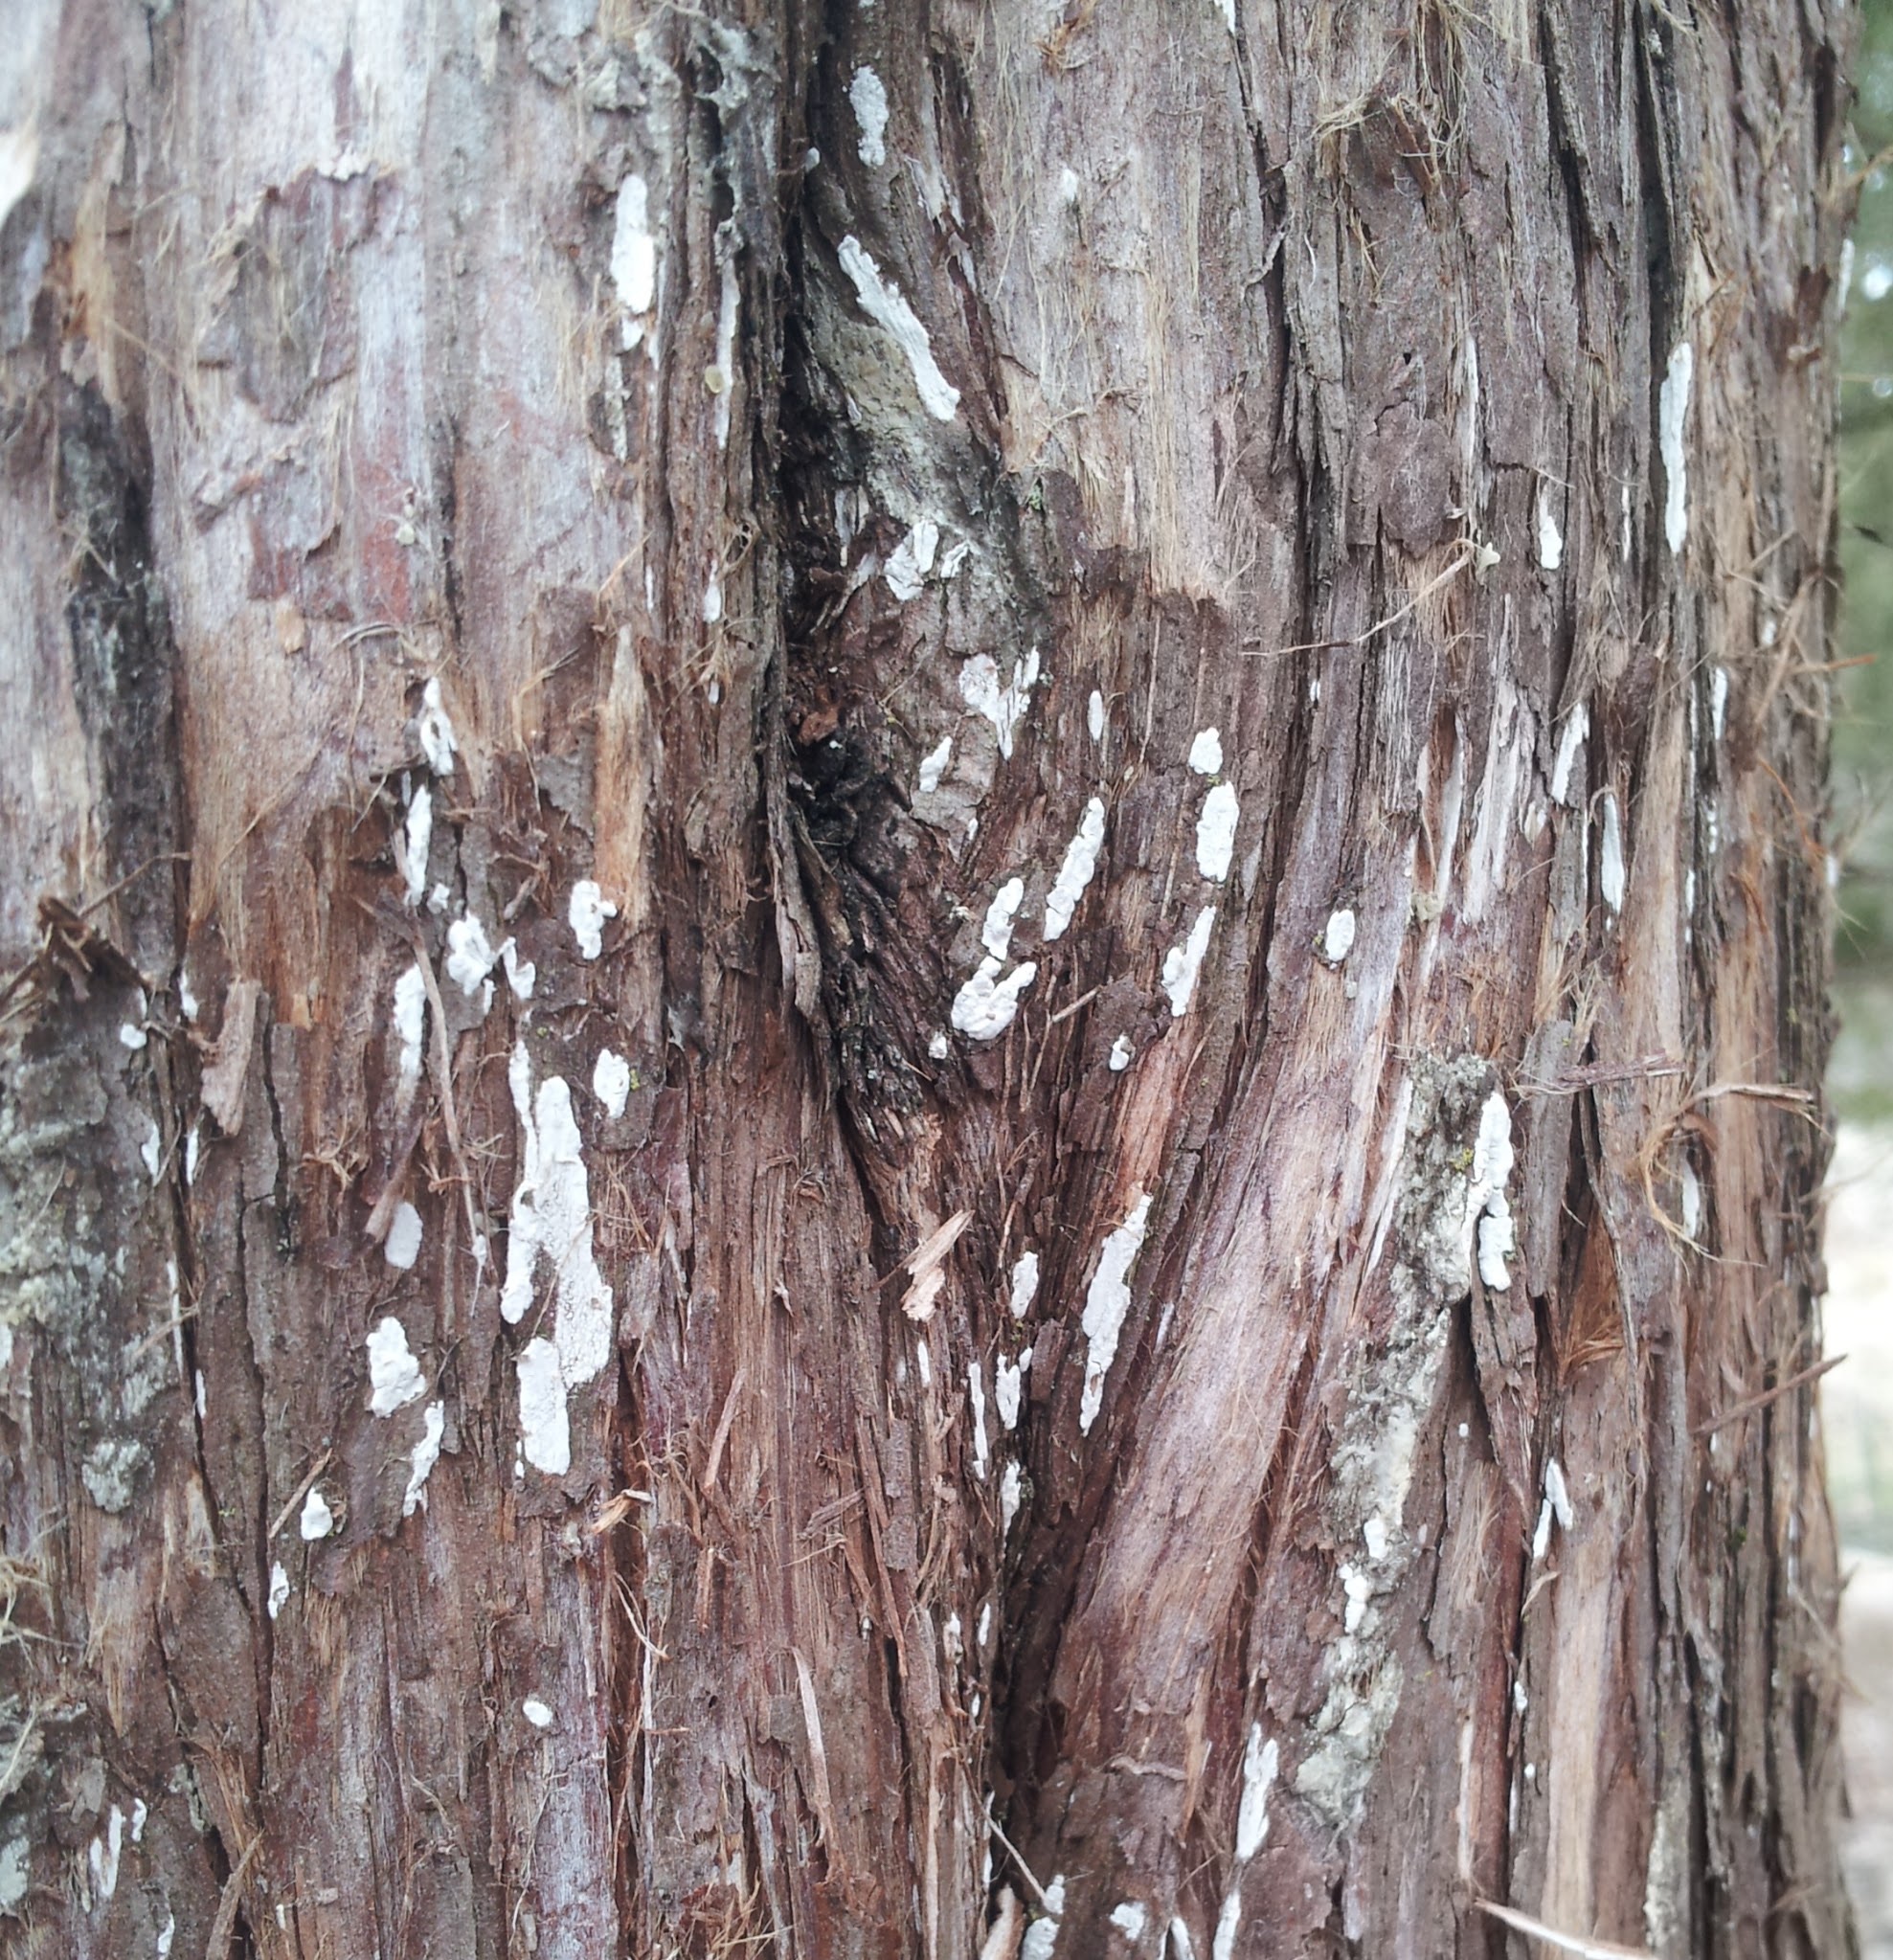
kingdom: Fungi
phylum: Basidiomycota
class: Agaricomycetes
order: Agaricales
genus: Dendrothele
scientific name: Dendrothele nivosa
